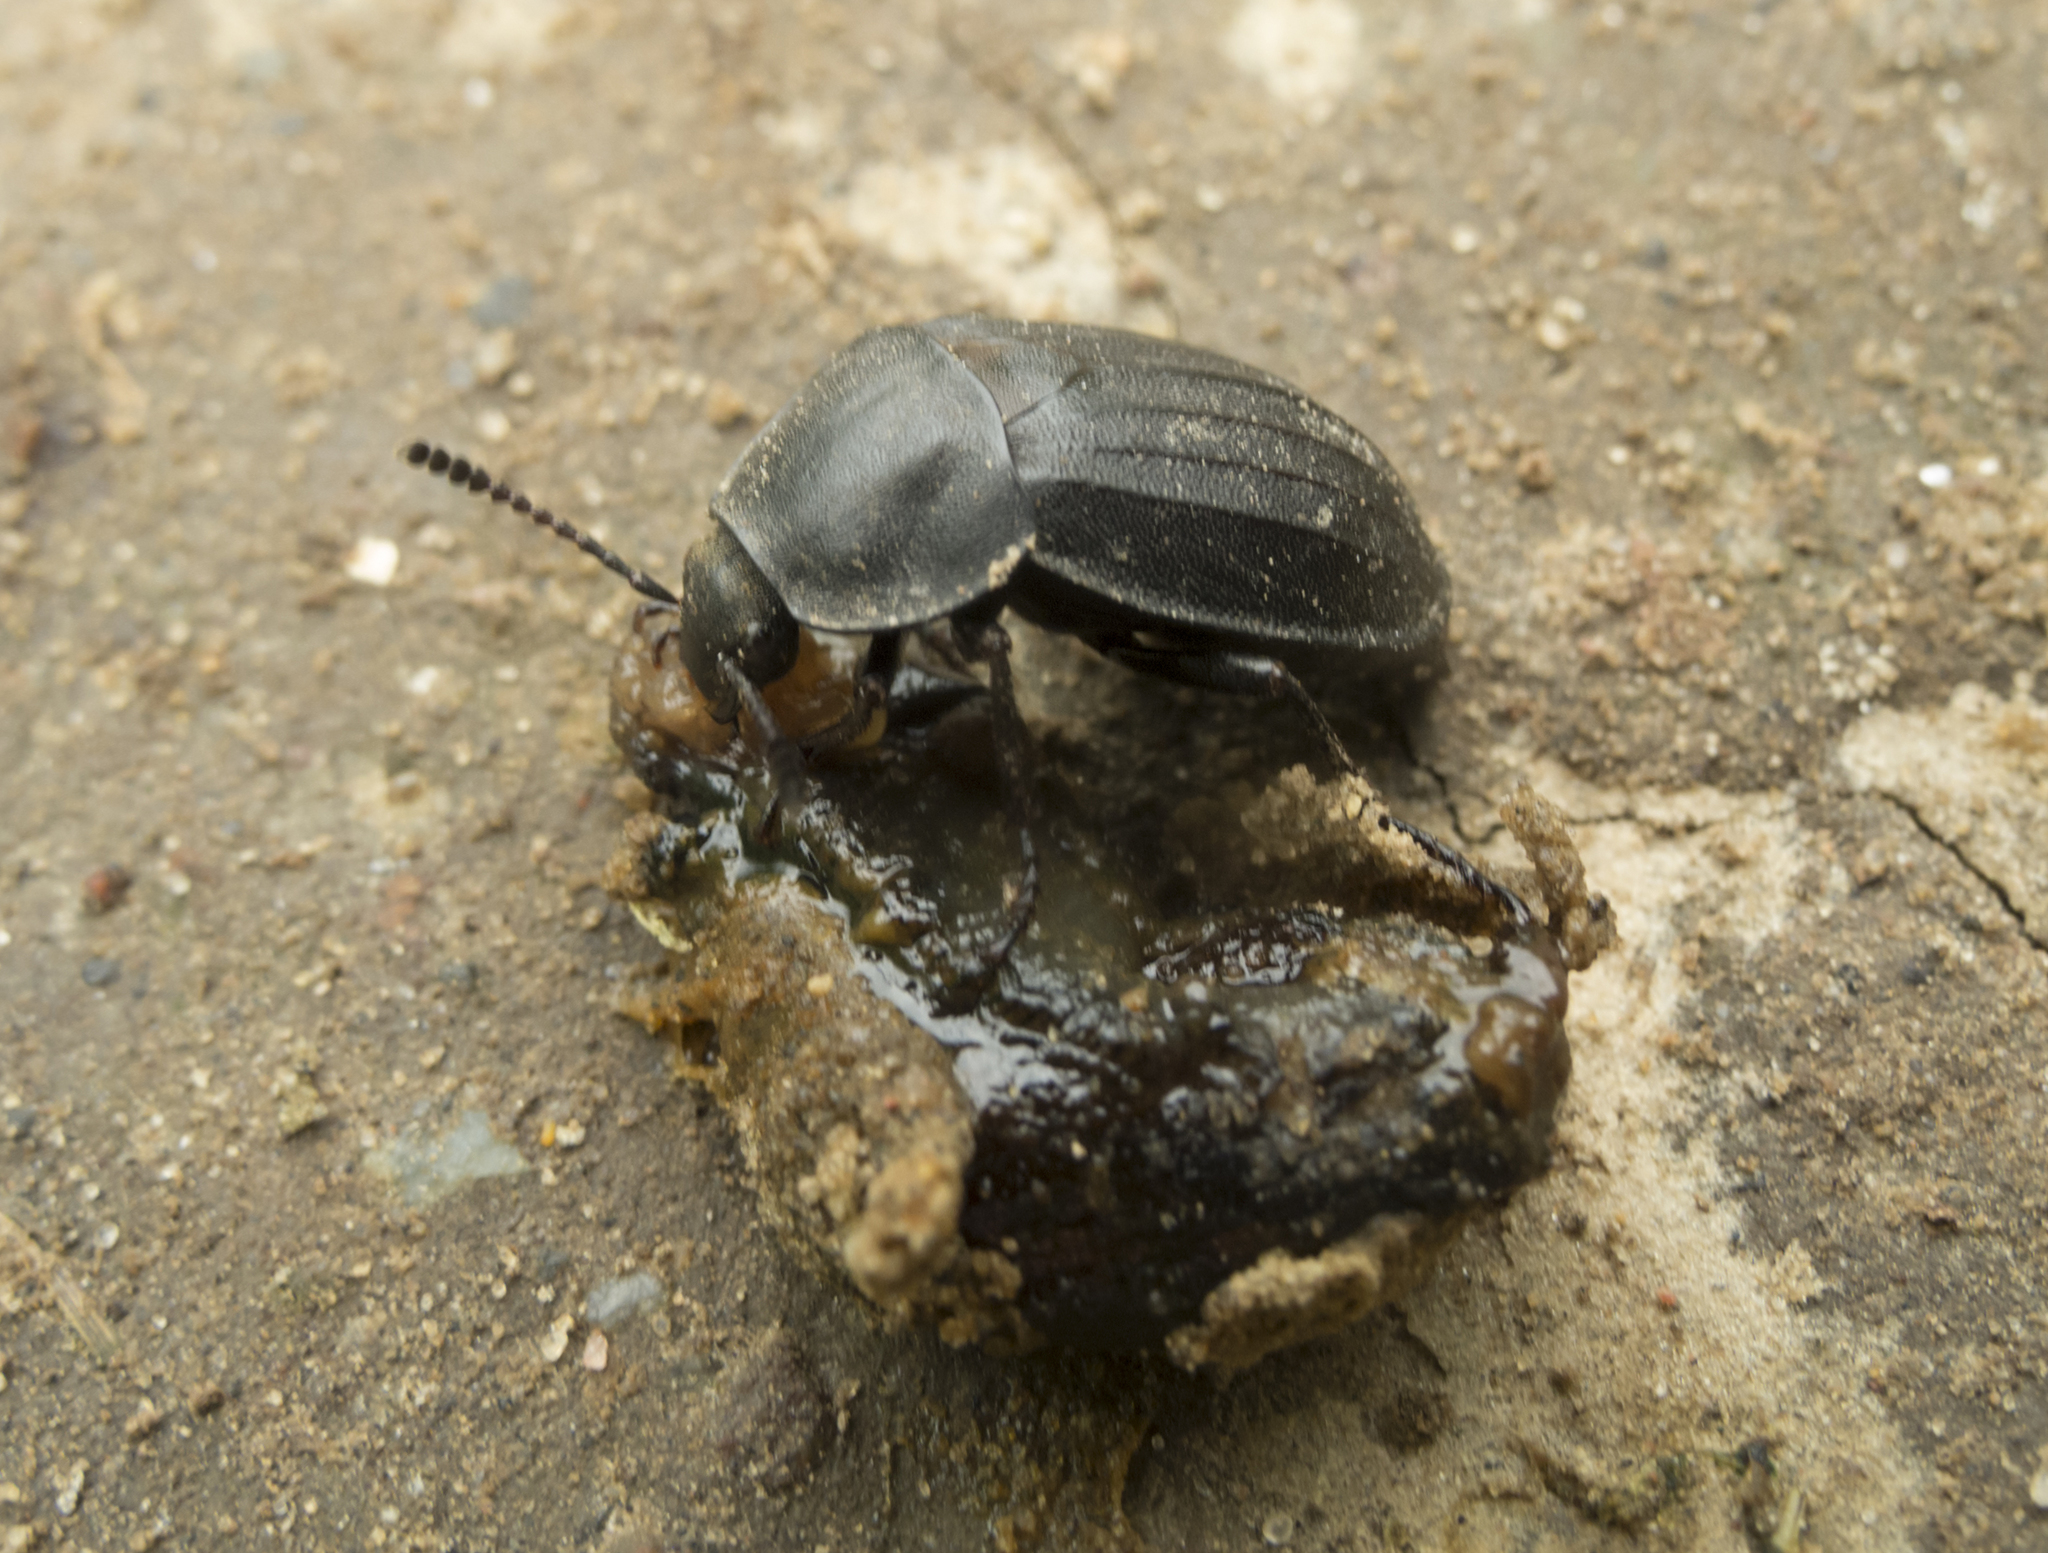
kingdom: Animalia
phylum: Arthropoda
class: Insecta
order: Coleoptera
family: Staphylinidae
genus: Silpha
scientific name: Silpha tristis
